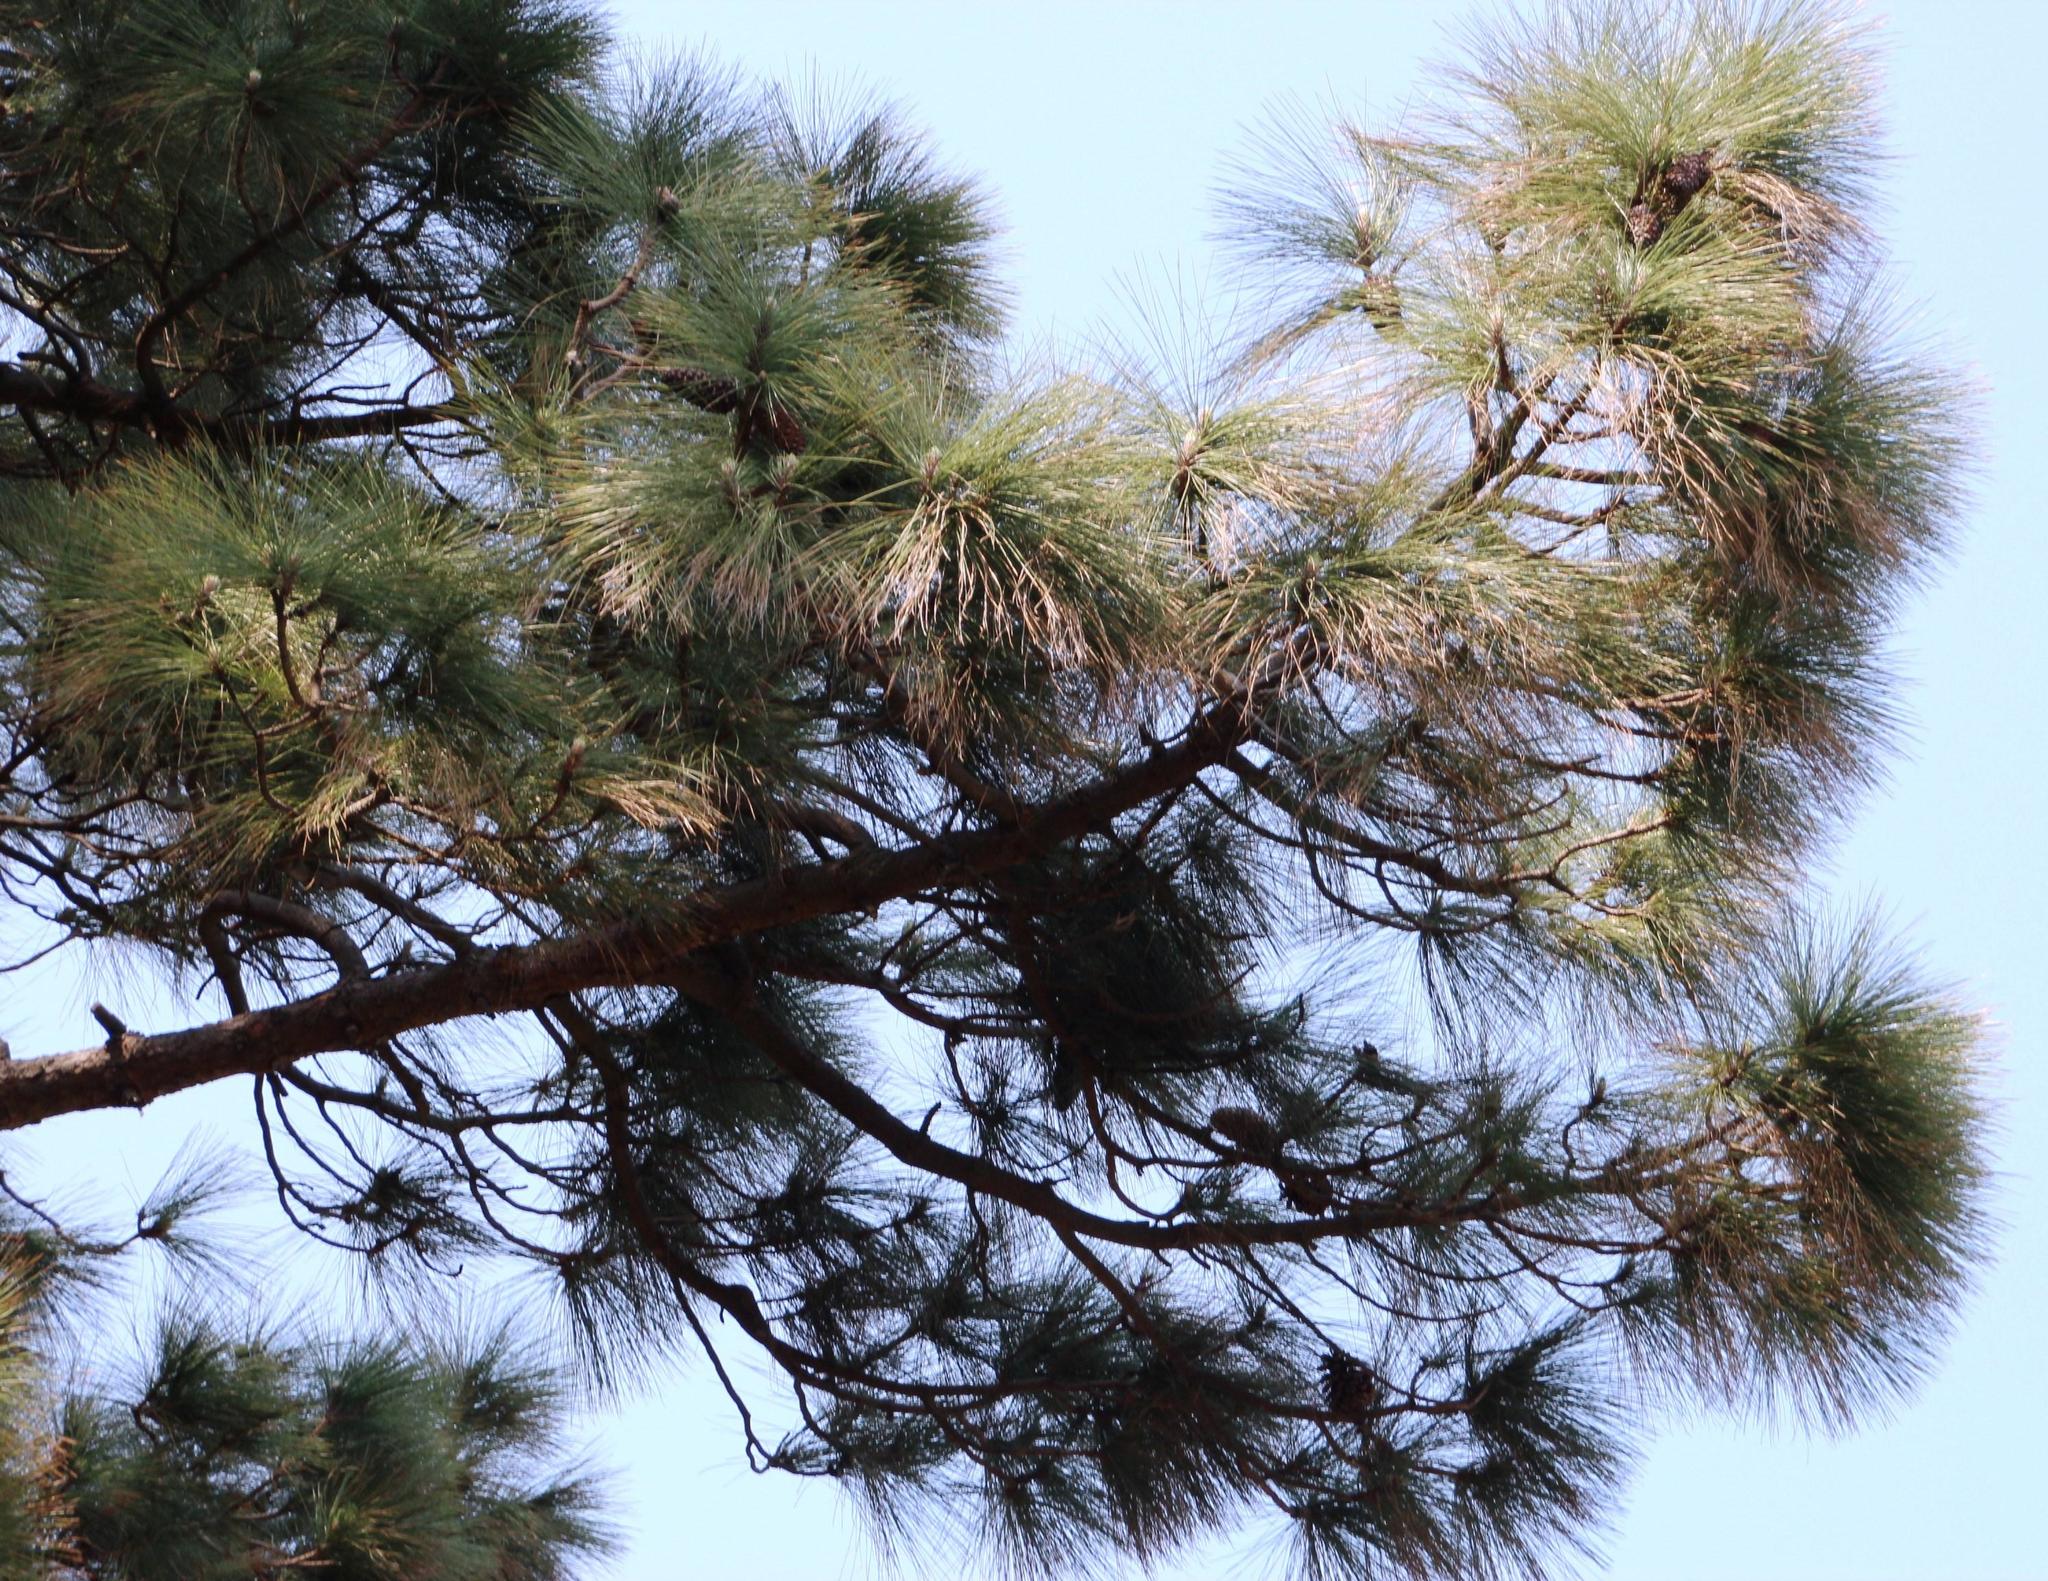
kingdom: Plantae
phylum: Tracheophyta
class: Pinopsida
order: Pinales
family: Pinaceae
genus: Pinus
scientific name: Pinus canariensis
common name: Canary islands pine
